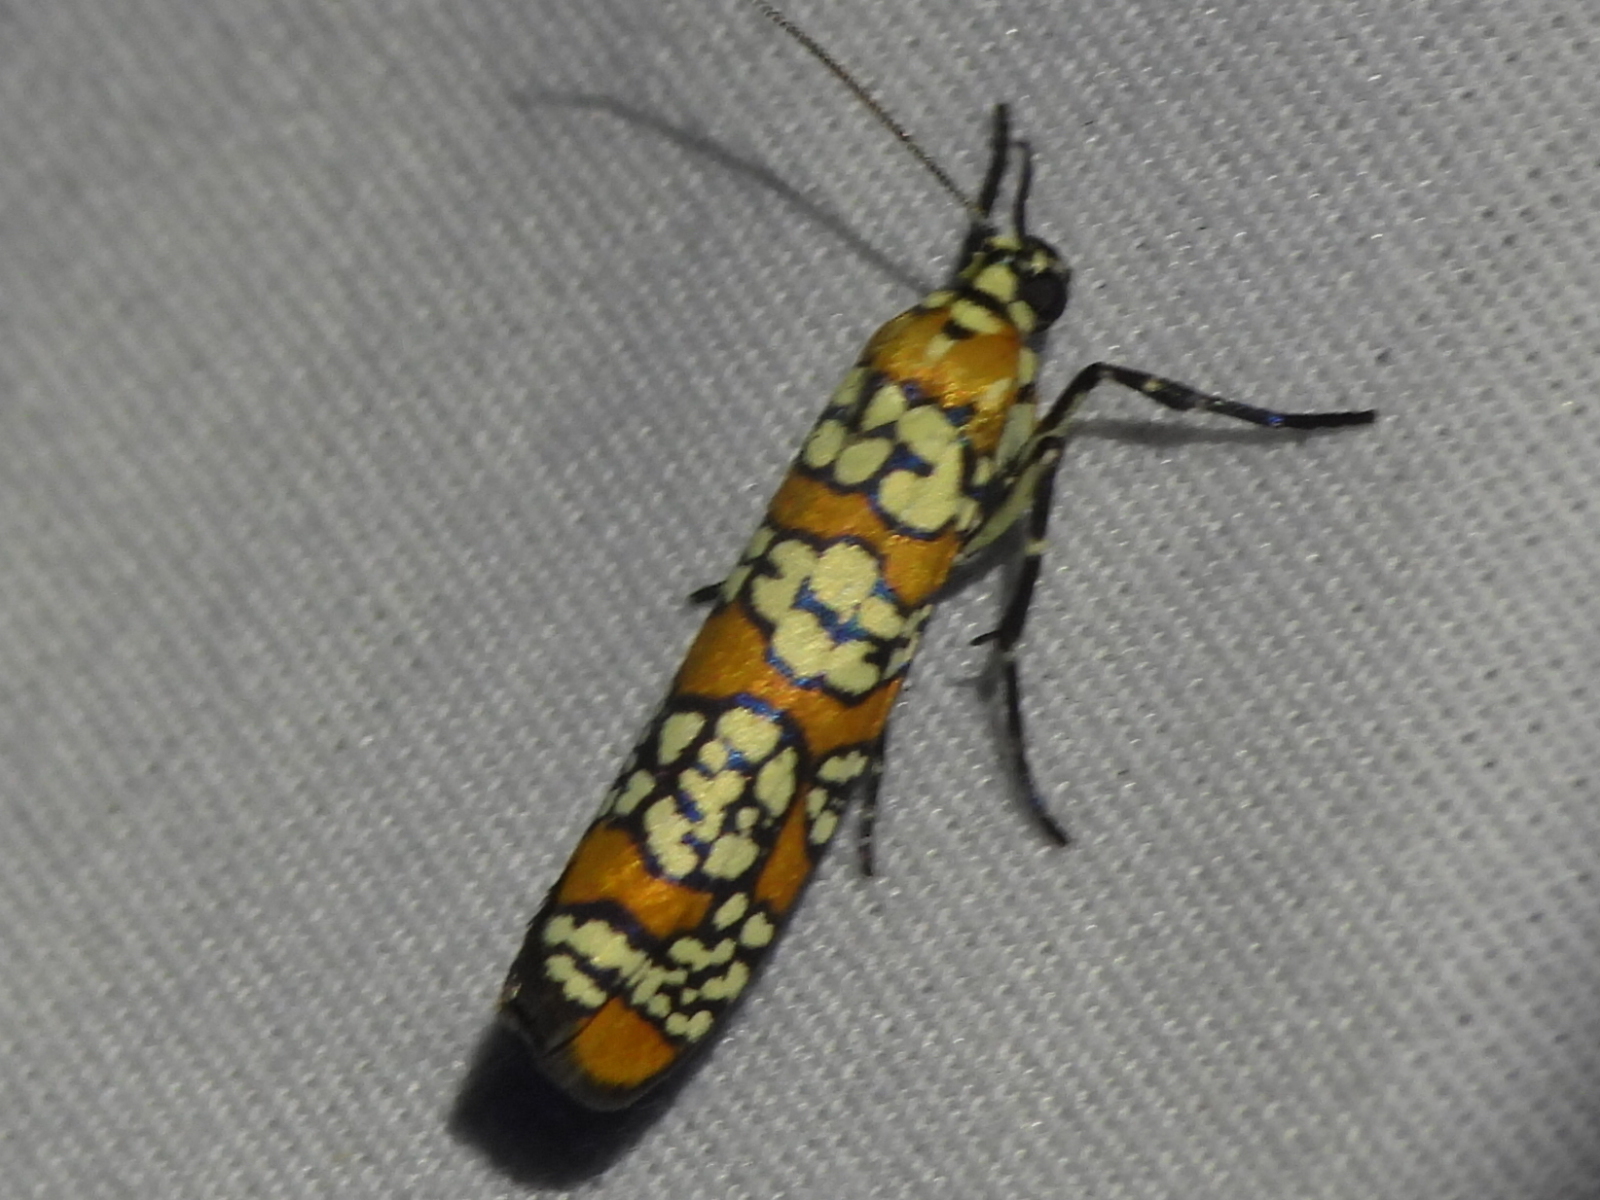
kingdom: Animalia
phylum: Arthropoda
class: Insecta
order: Lepidoptera
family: Attevidae
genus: Atteva
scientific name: Atteva punctella
